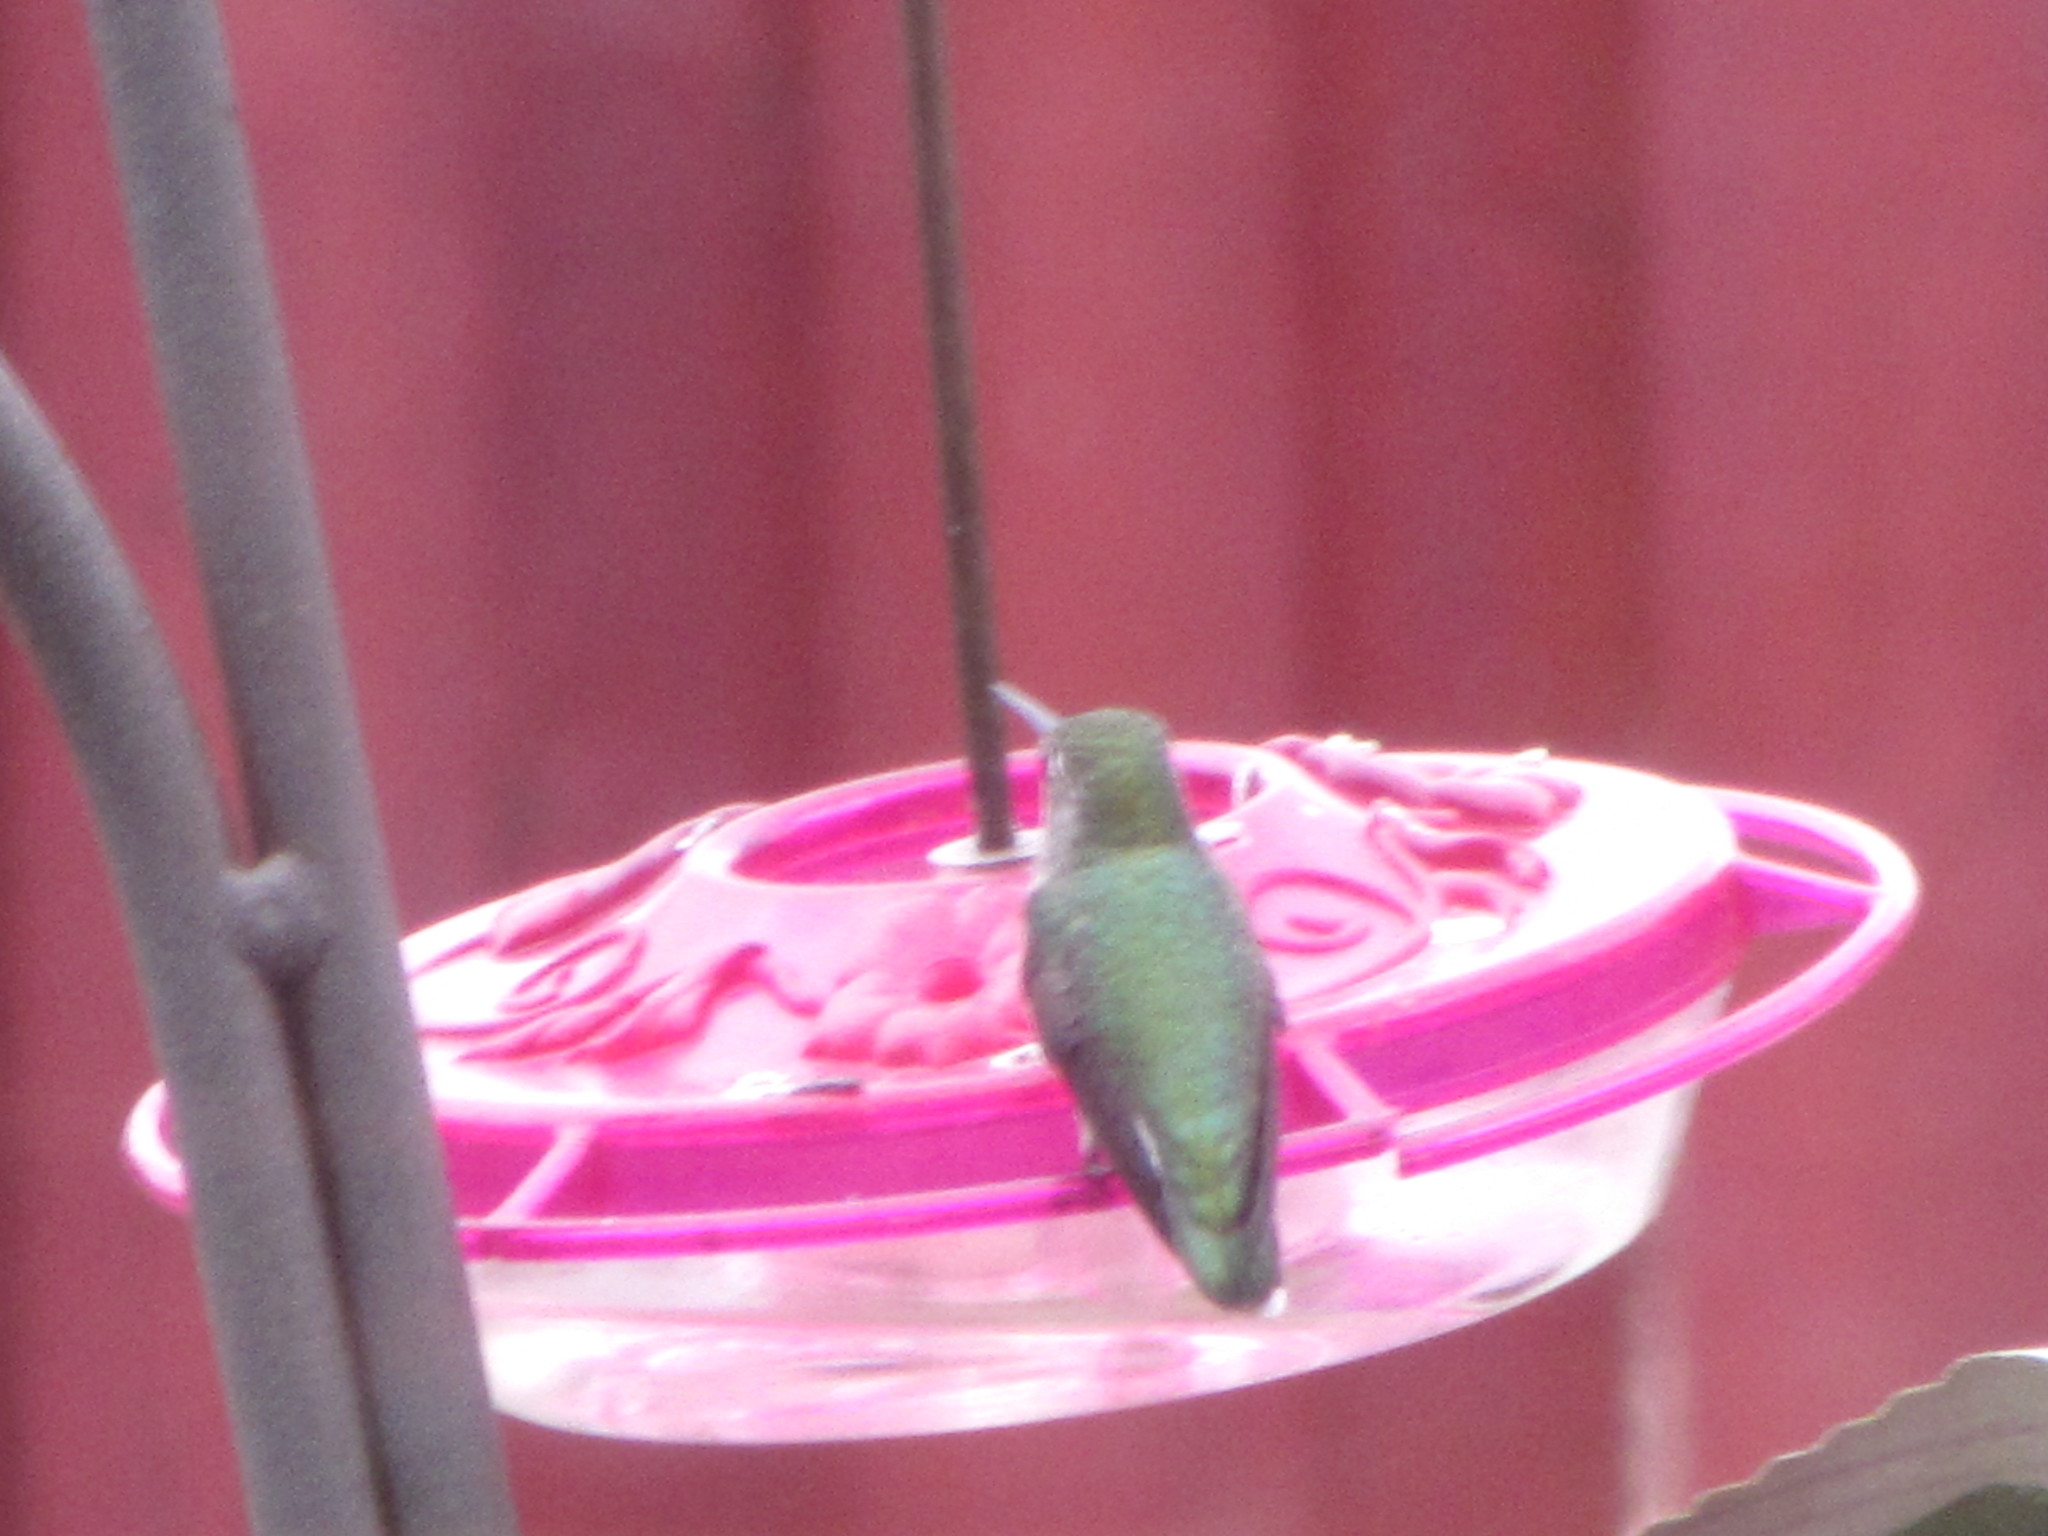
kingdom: Animalia
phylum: Chordata
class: Aves
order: Apodiformes
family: Trochilidae
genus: Calypte
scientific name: Calypte anna
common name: Anna's hummingbird
